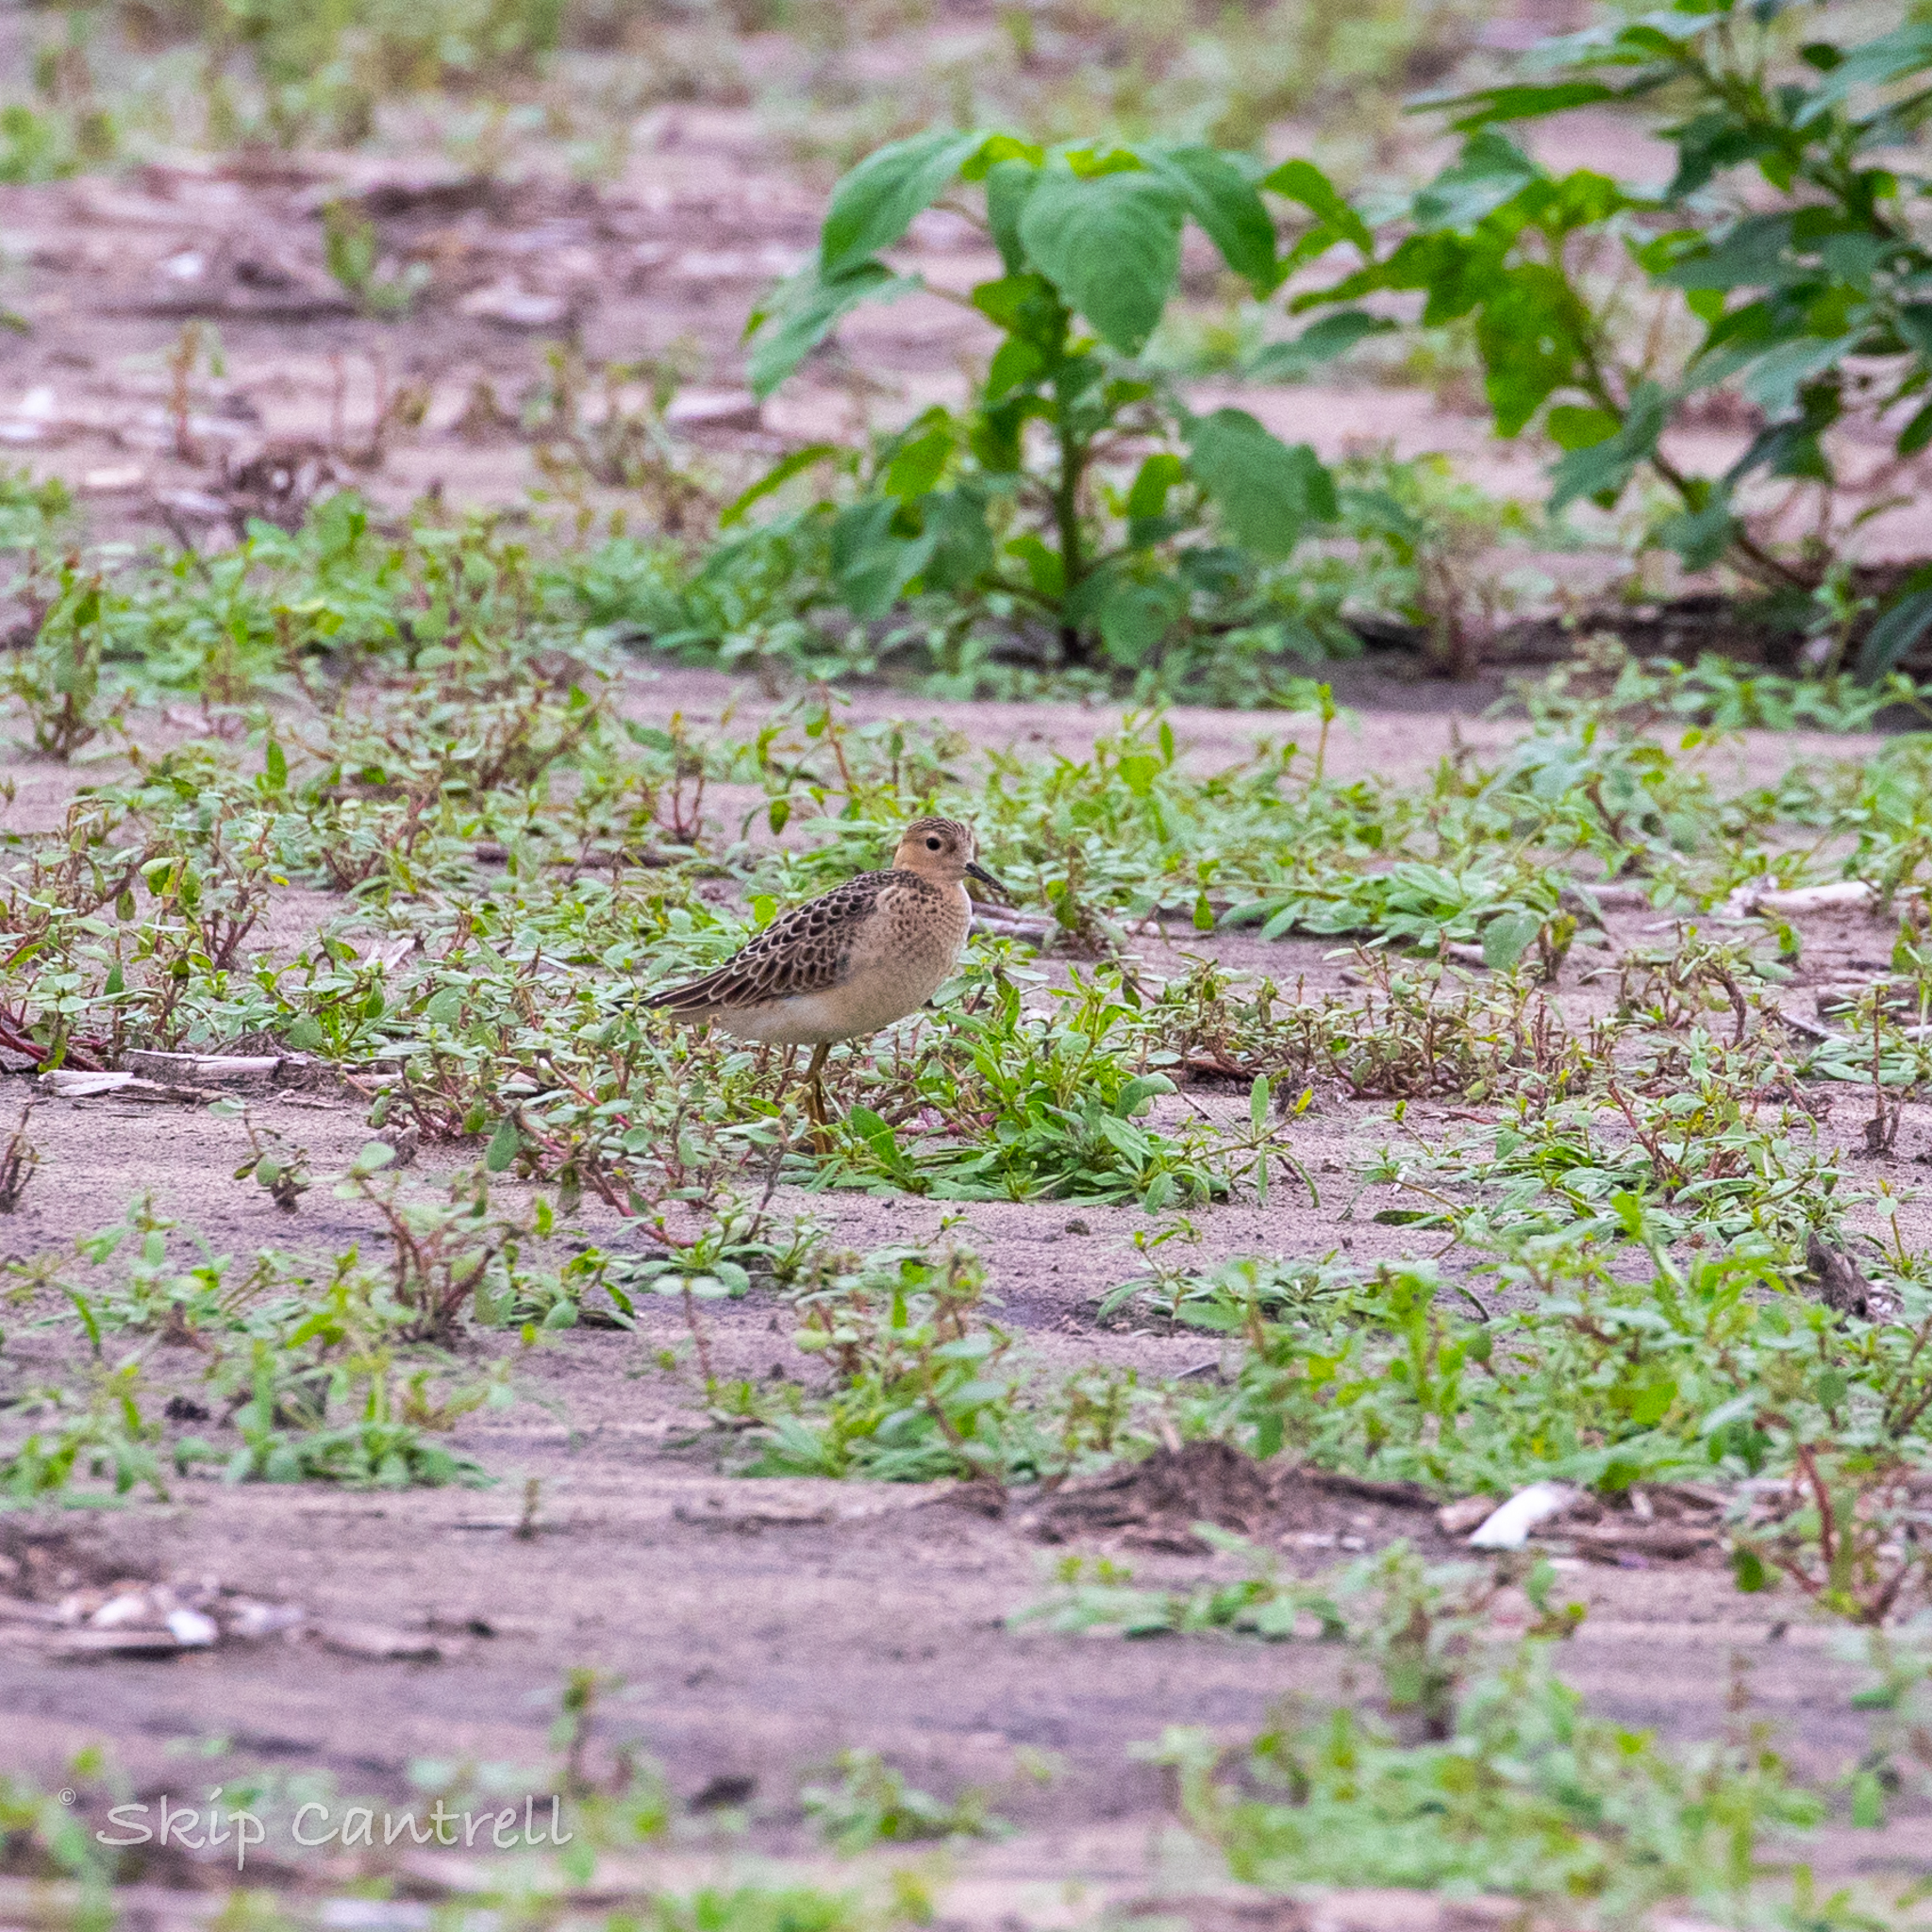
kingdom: Animalia
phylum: Chordata
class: Aves
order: Charadriiformes
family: Scolopacidae
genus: Calidris
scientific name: Calidris subruficollis
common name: Buff-breasted sandpiper
